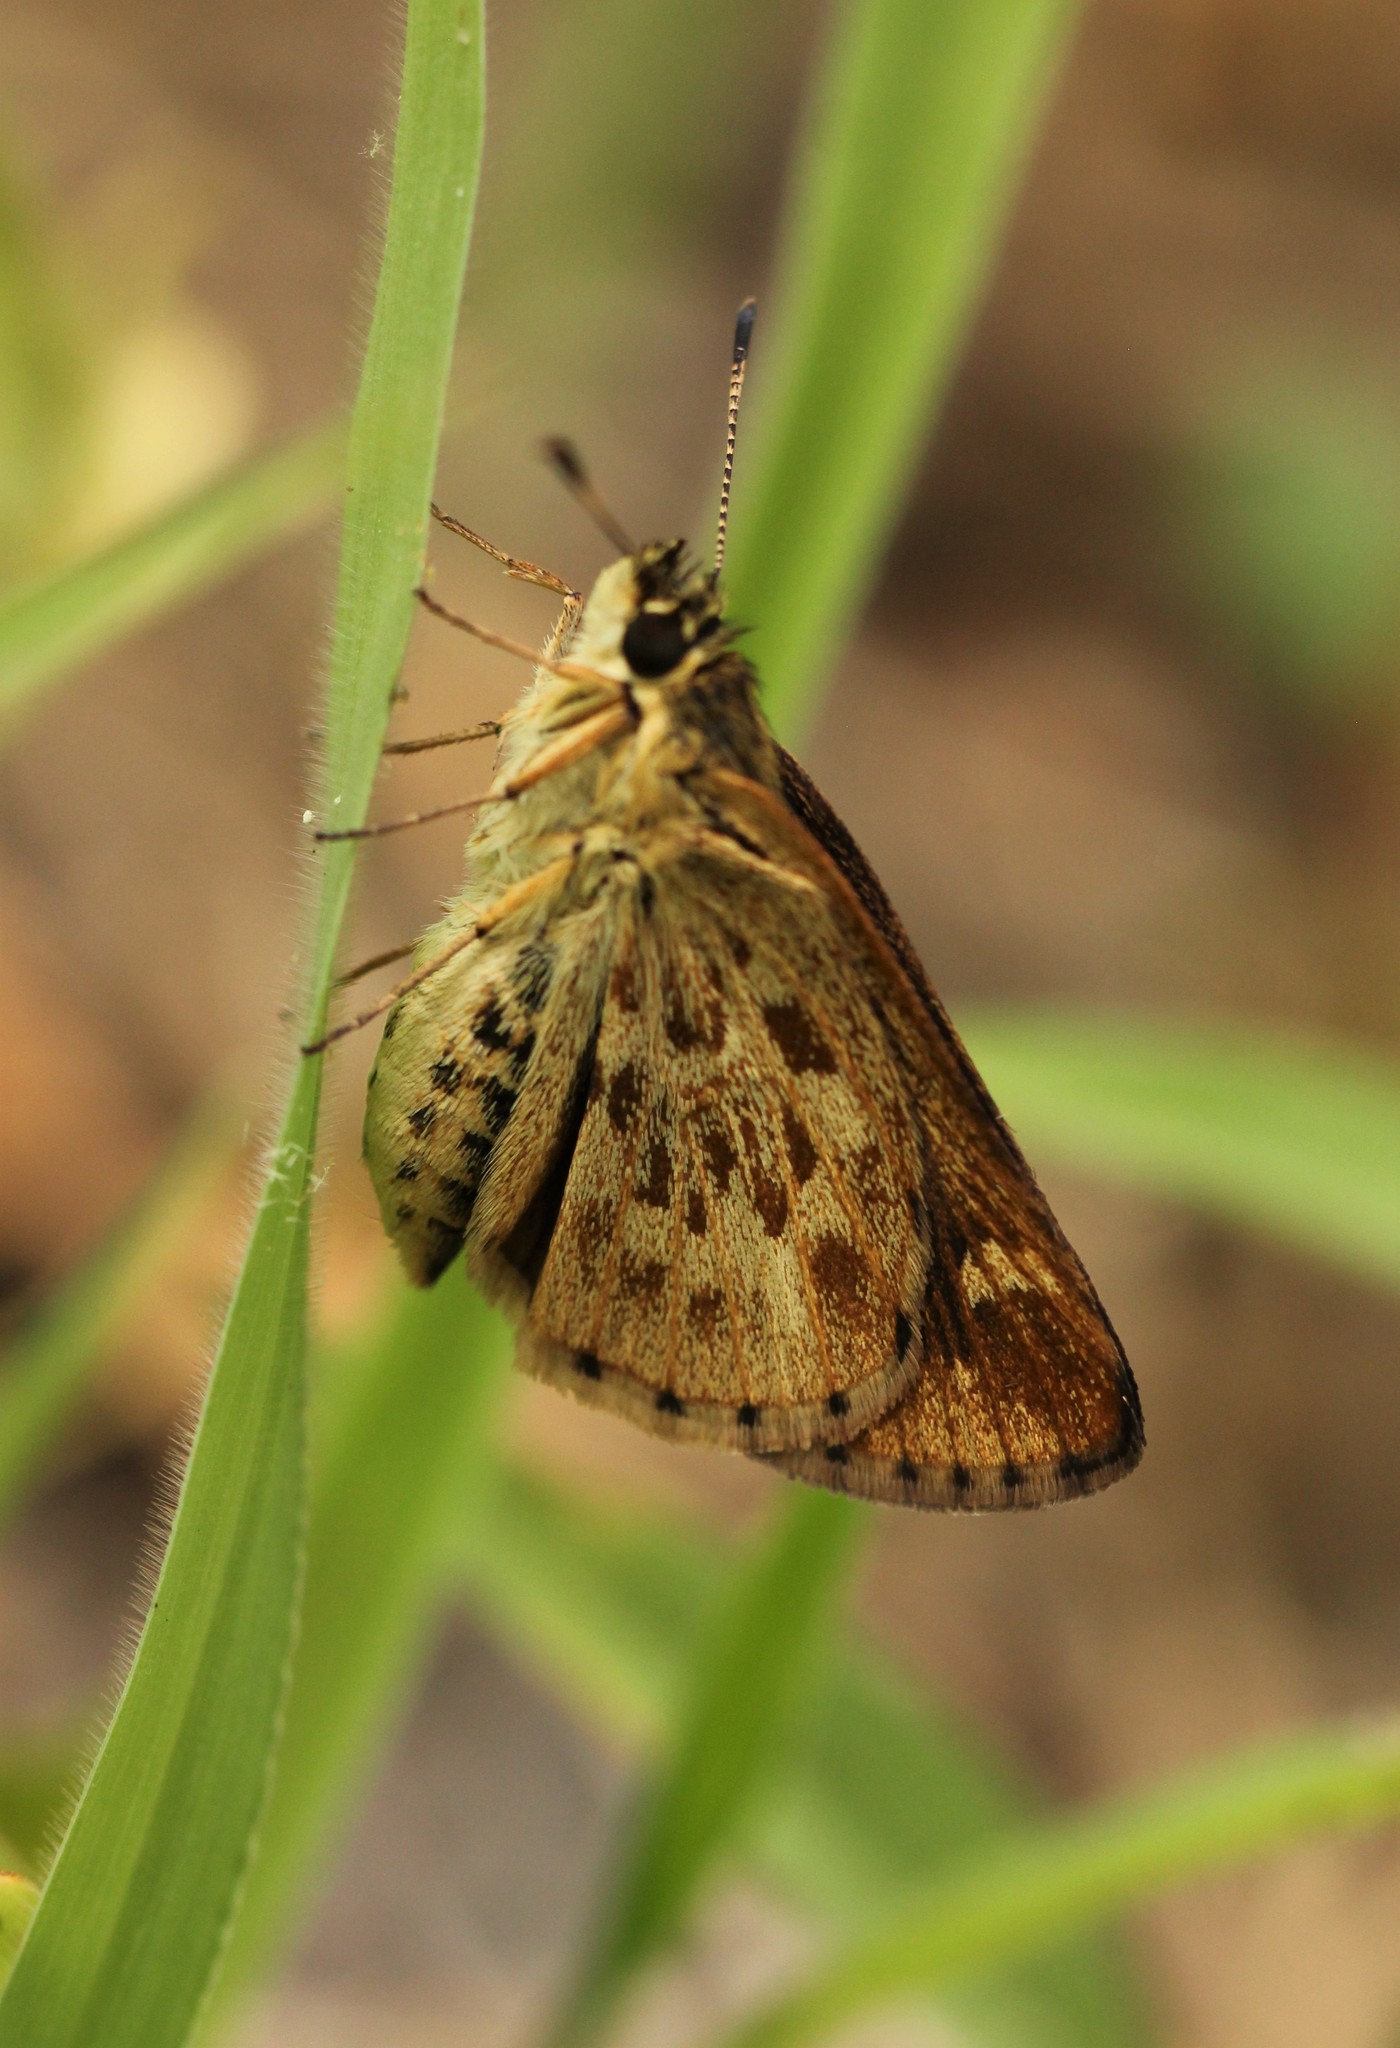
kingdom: Animalia
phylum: Arthropoda
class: Insecta
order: Lepidoptera
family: Hesperiidae
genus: Mastor
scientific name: Mastor carolina
